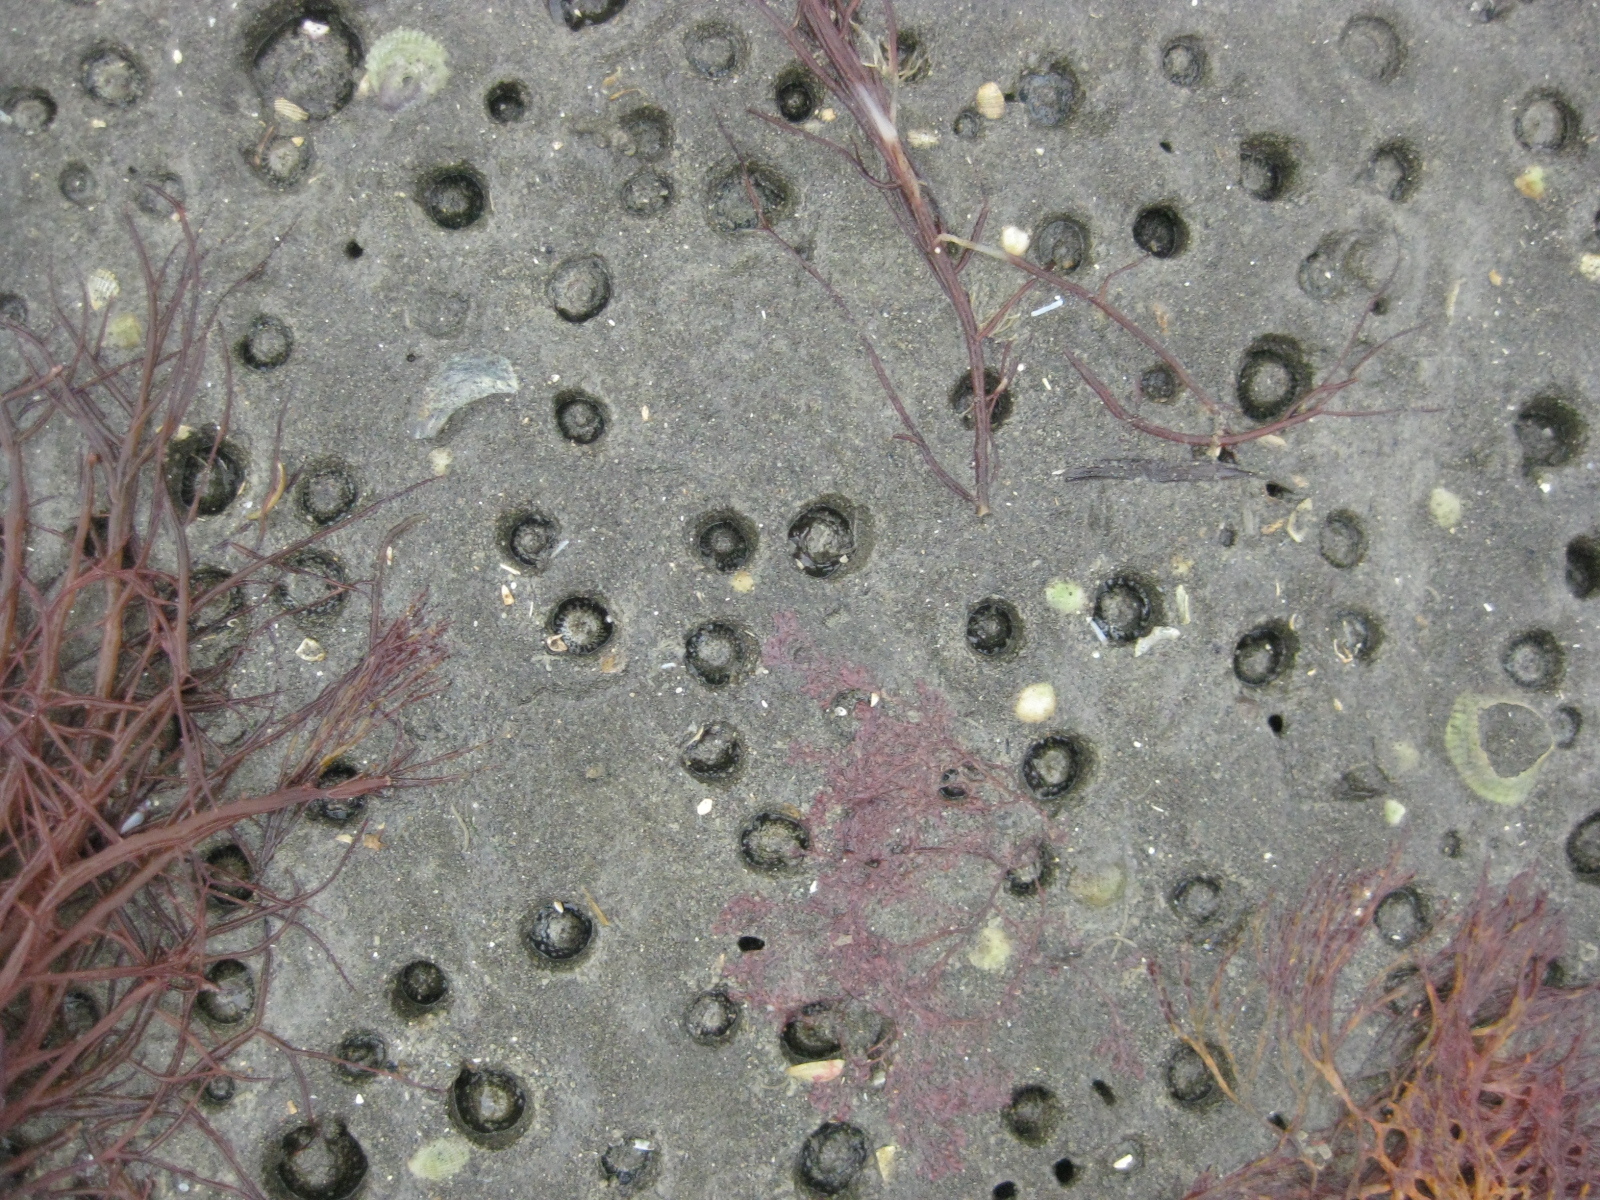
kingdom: Animalia
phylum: Cnidaria
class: Anthozoa
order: Actiniaria
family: Actiniidae
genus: Anthopleura
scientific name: Anthopleura hermaphroditica
